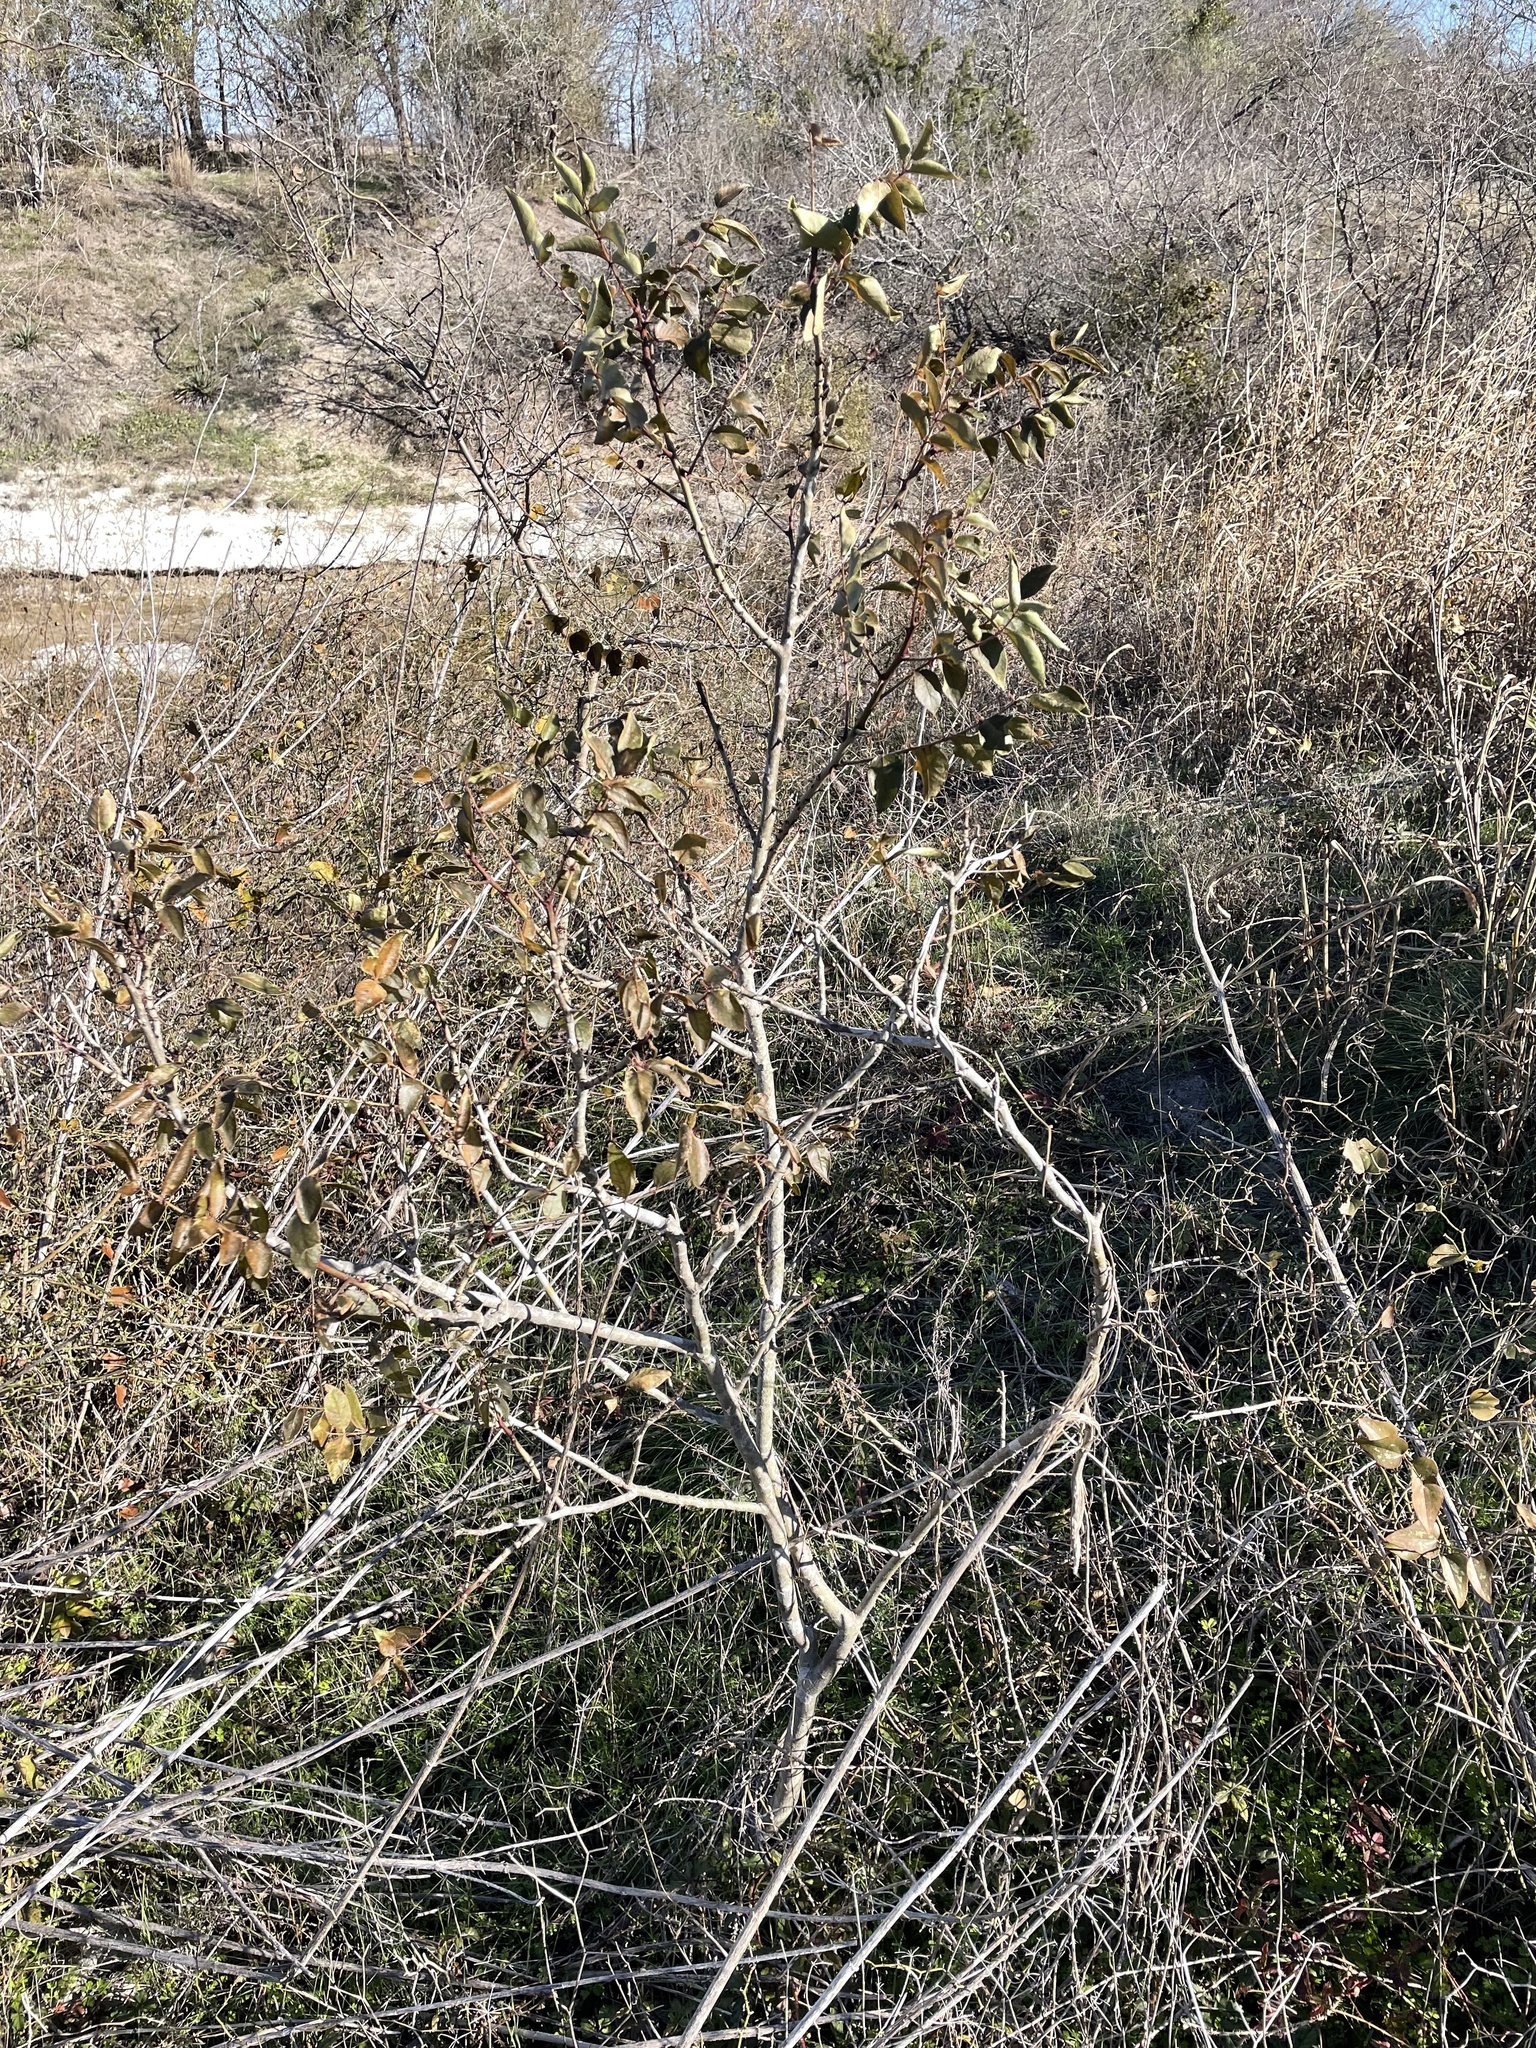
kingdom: Plantae
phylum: Tracheophyta
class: Magnoliopsida
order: Sapindales
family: Rutaceae
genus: Zanthoxylum
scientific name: Zanthoxylum clava-herculis
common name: Hercules'-club
